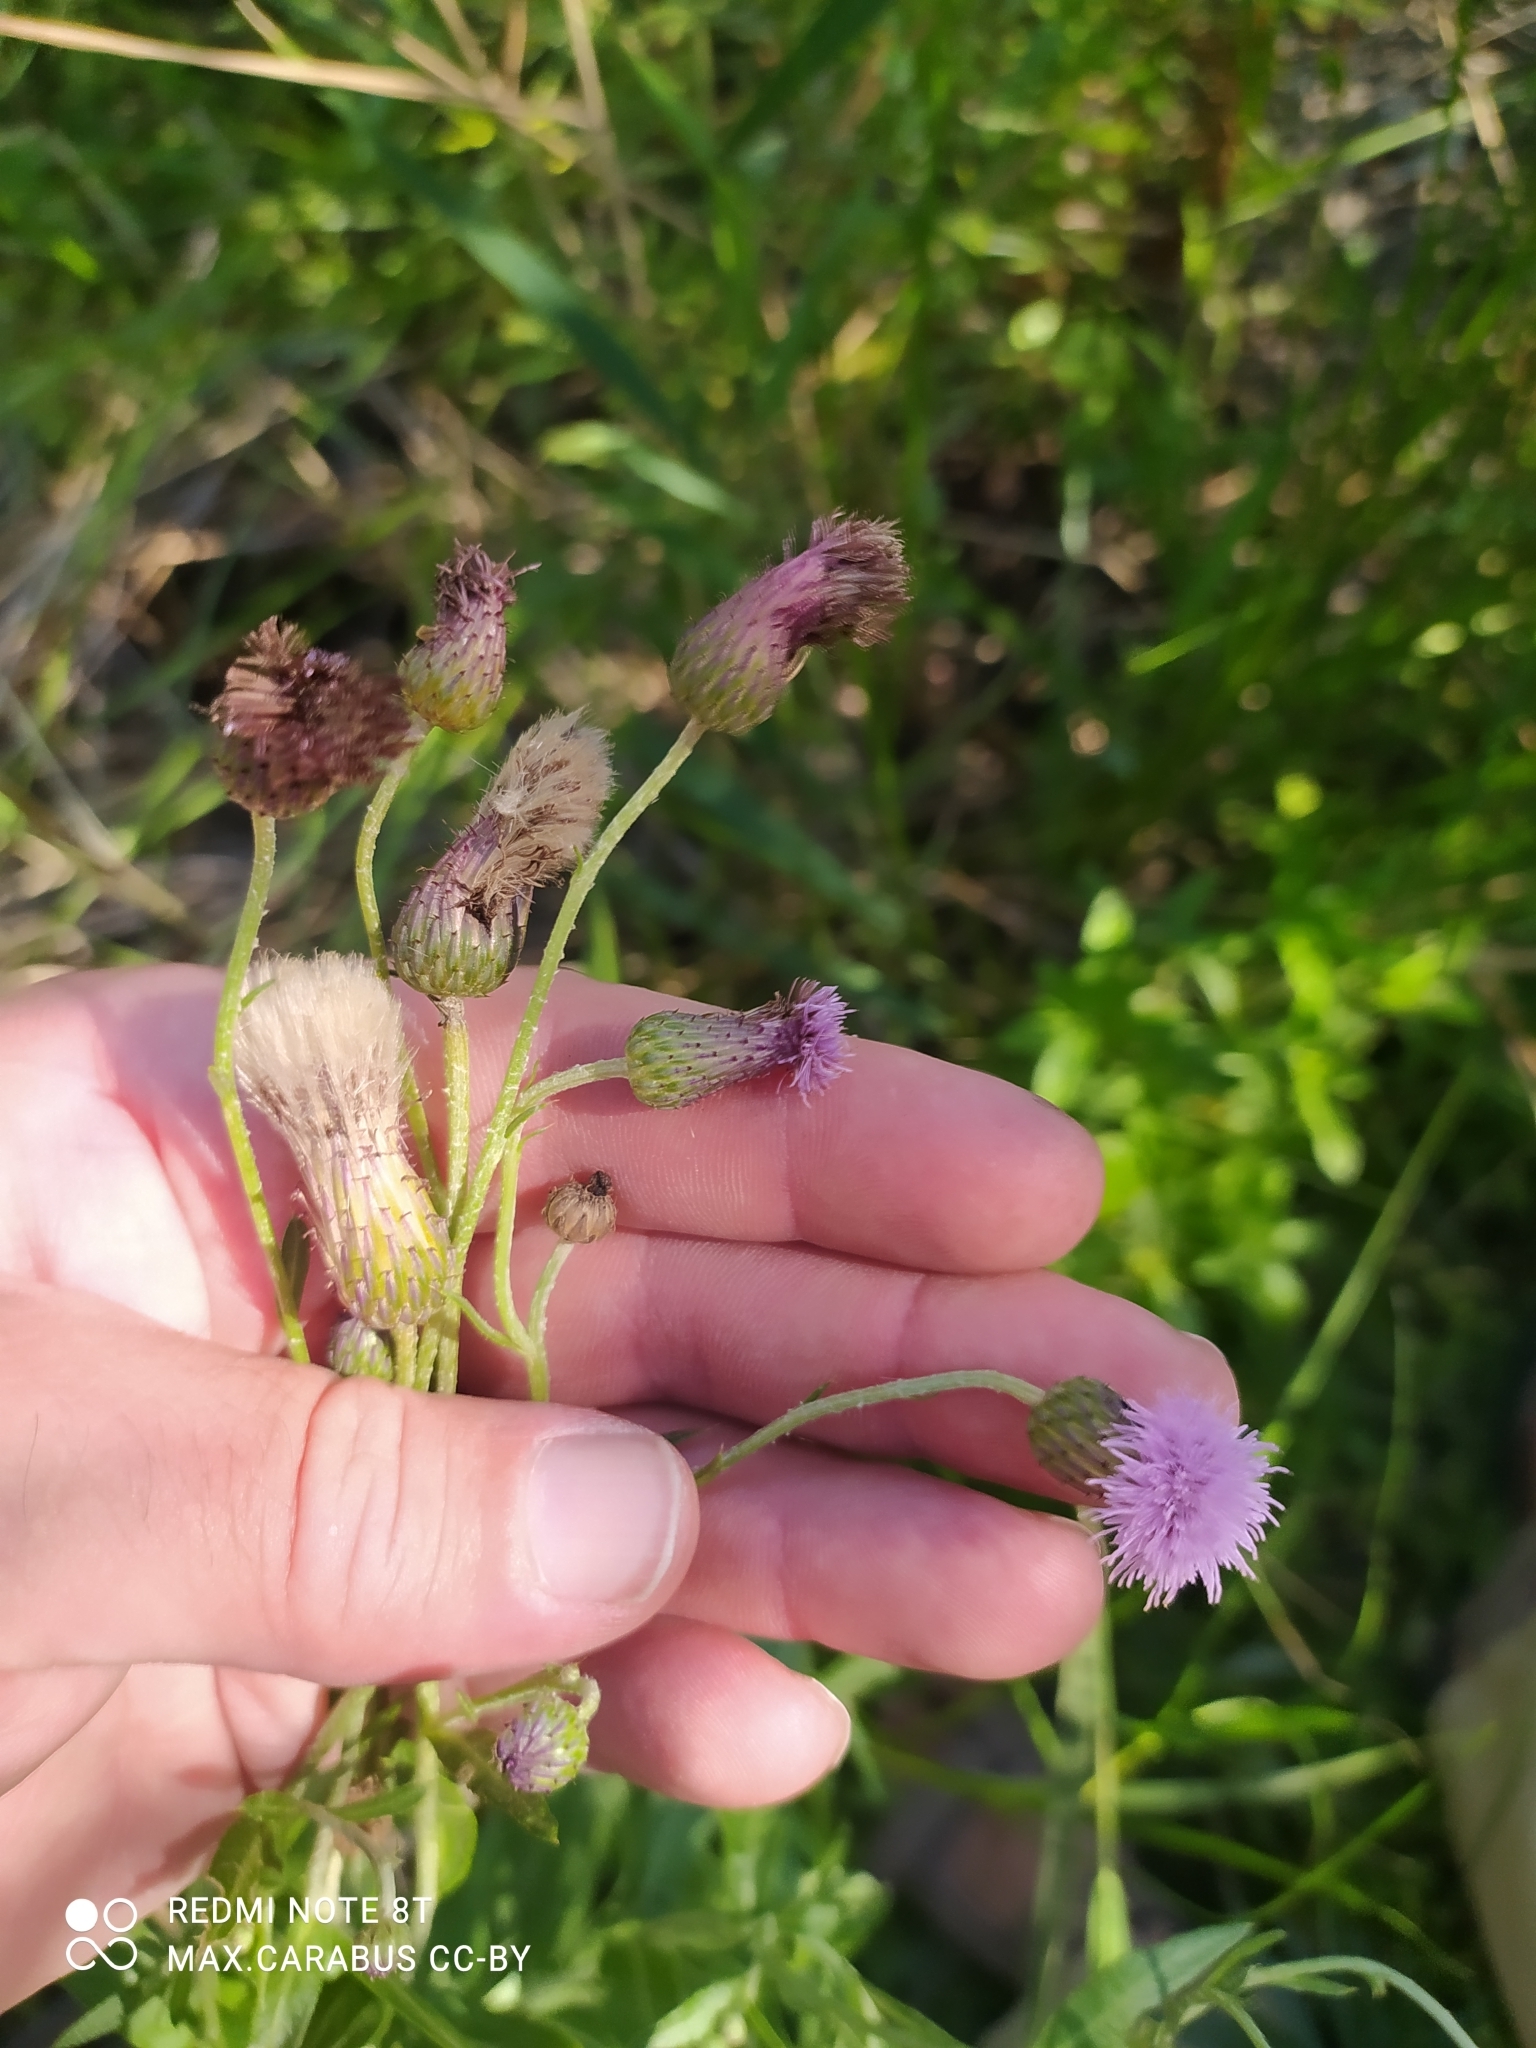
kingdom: Plantae
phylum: Tracheophyta
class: Magnoliopsida
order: Asterales
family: Asteraceae
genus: Cirsium
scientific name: Cirsium arvense
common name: Creeping thistle
